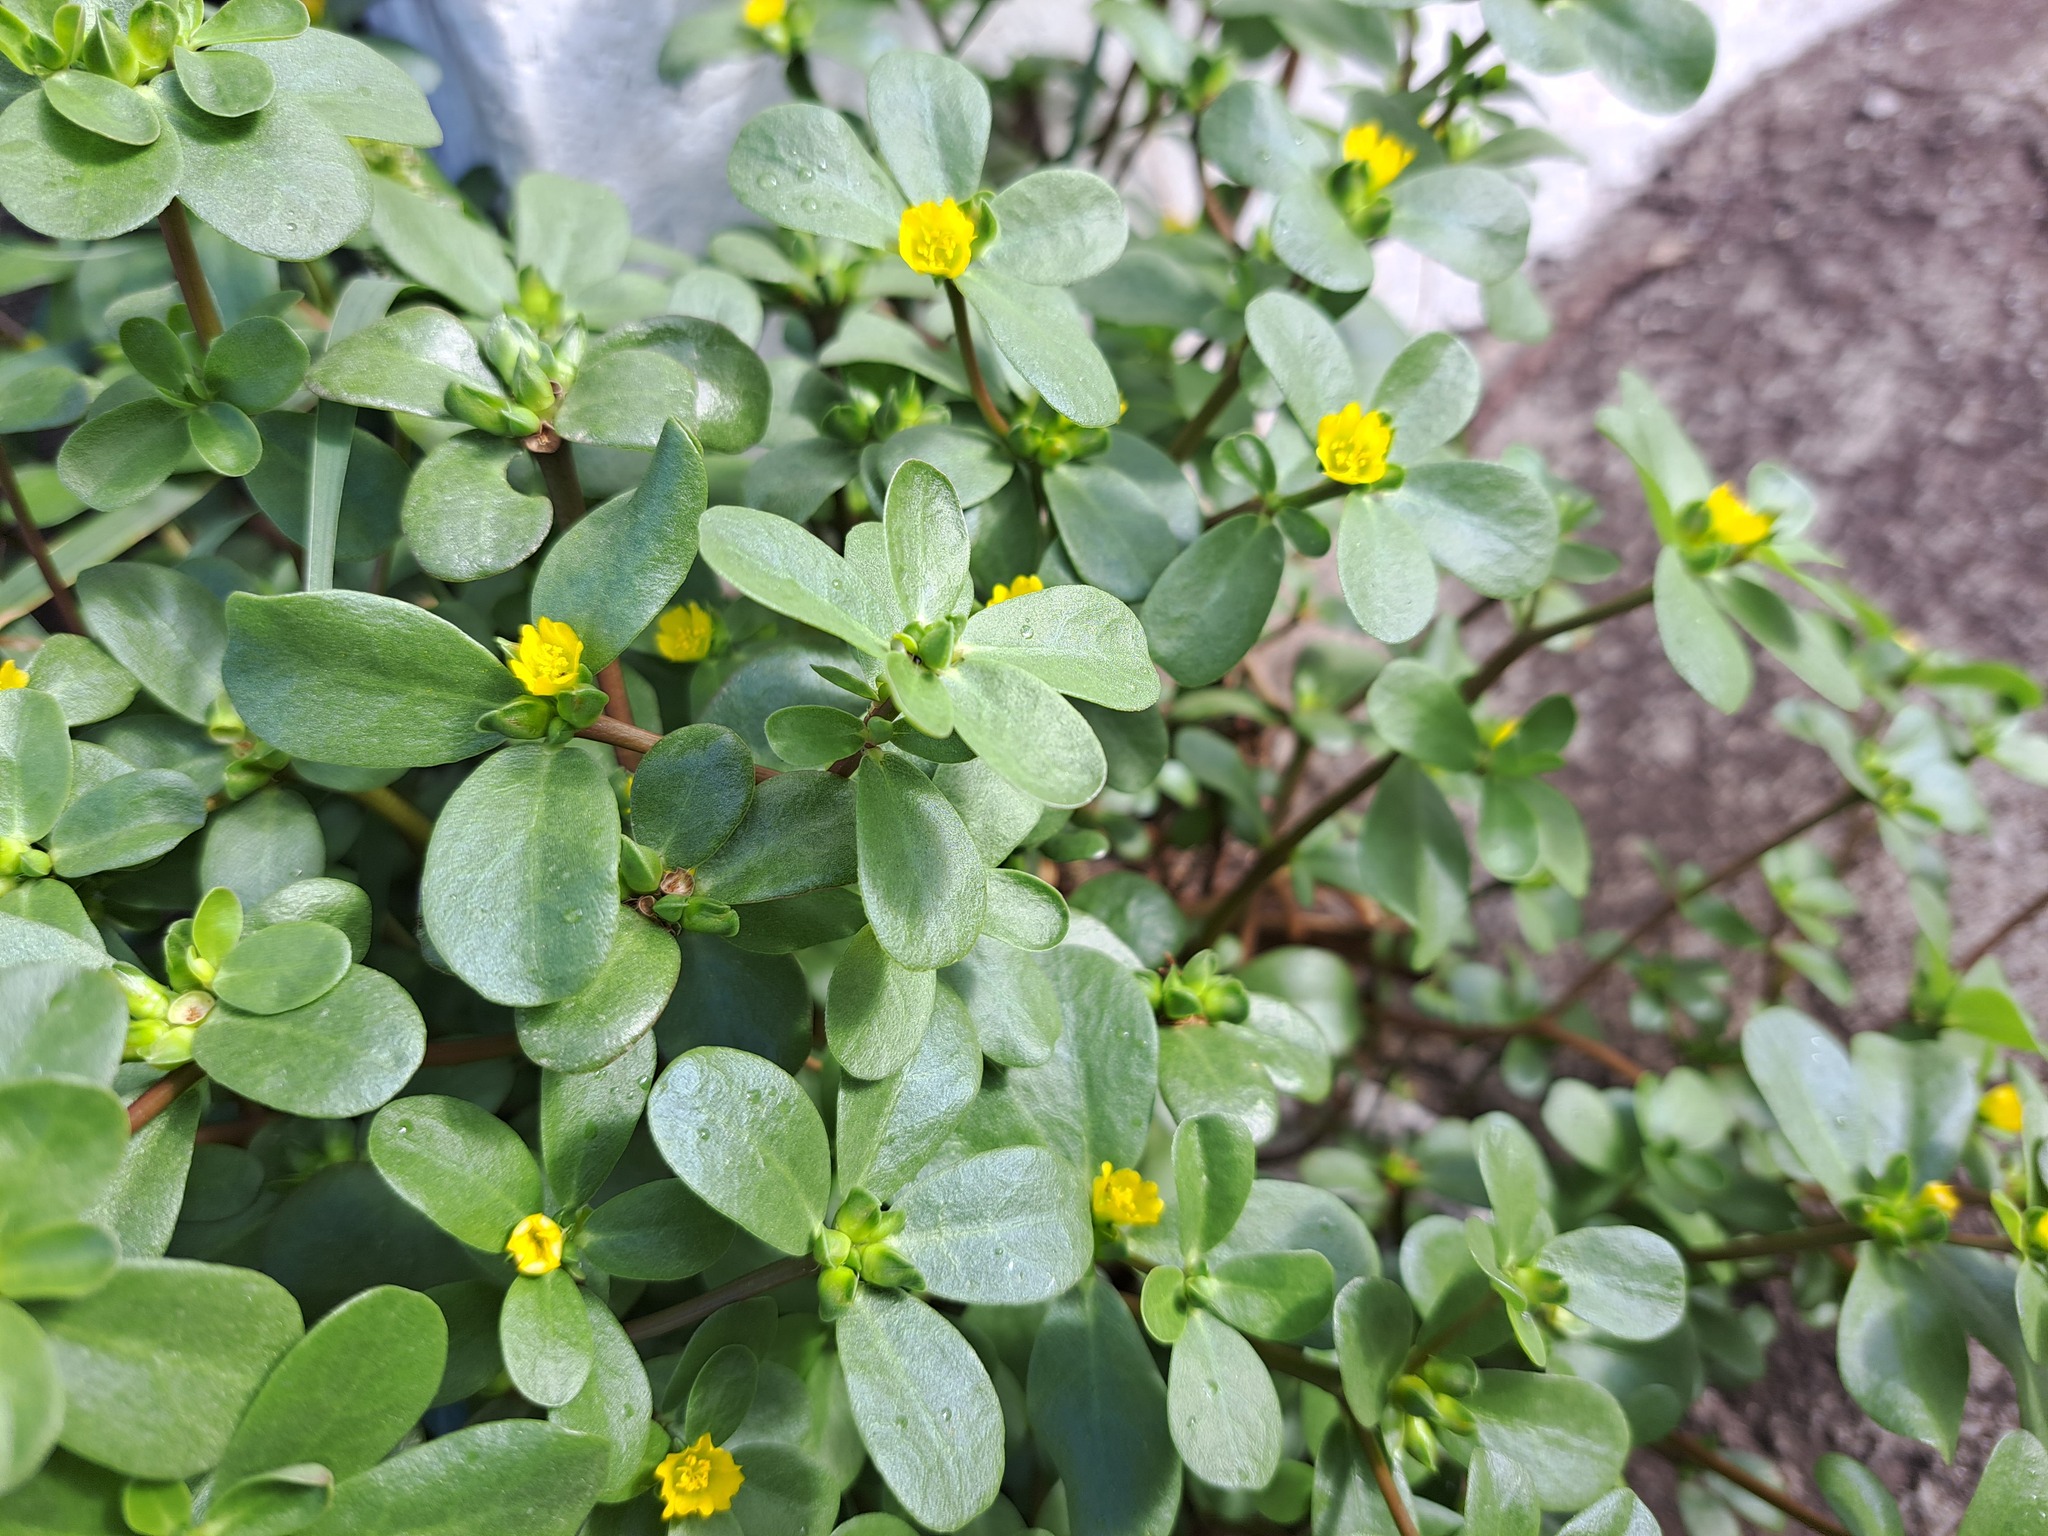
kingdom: Plantae
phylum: Tracheophyta
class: Magnoliopsida
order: Caryophyllales
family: Portulacaceae
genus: Portulaca
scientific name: Portulaca oleracea
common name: Common purslane
